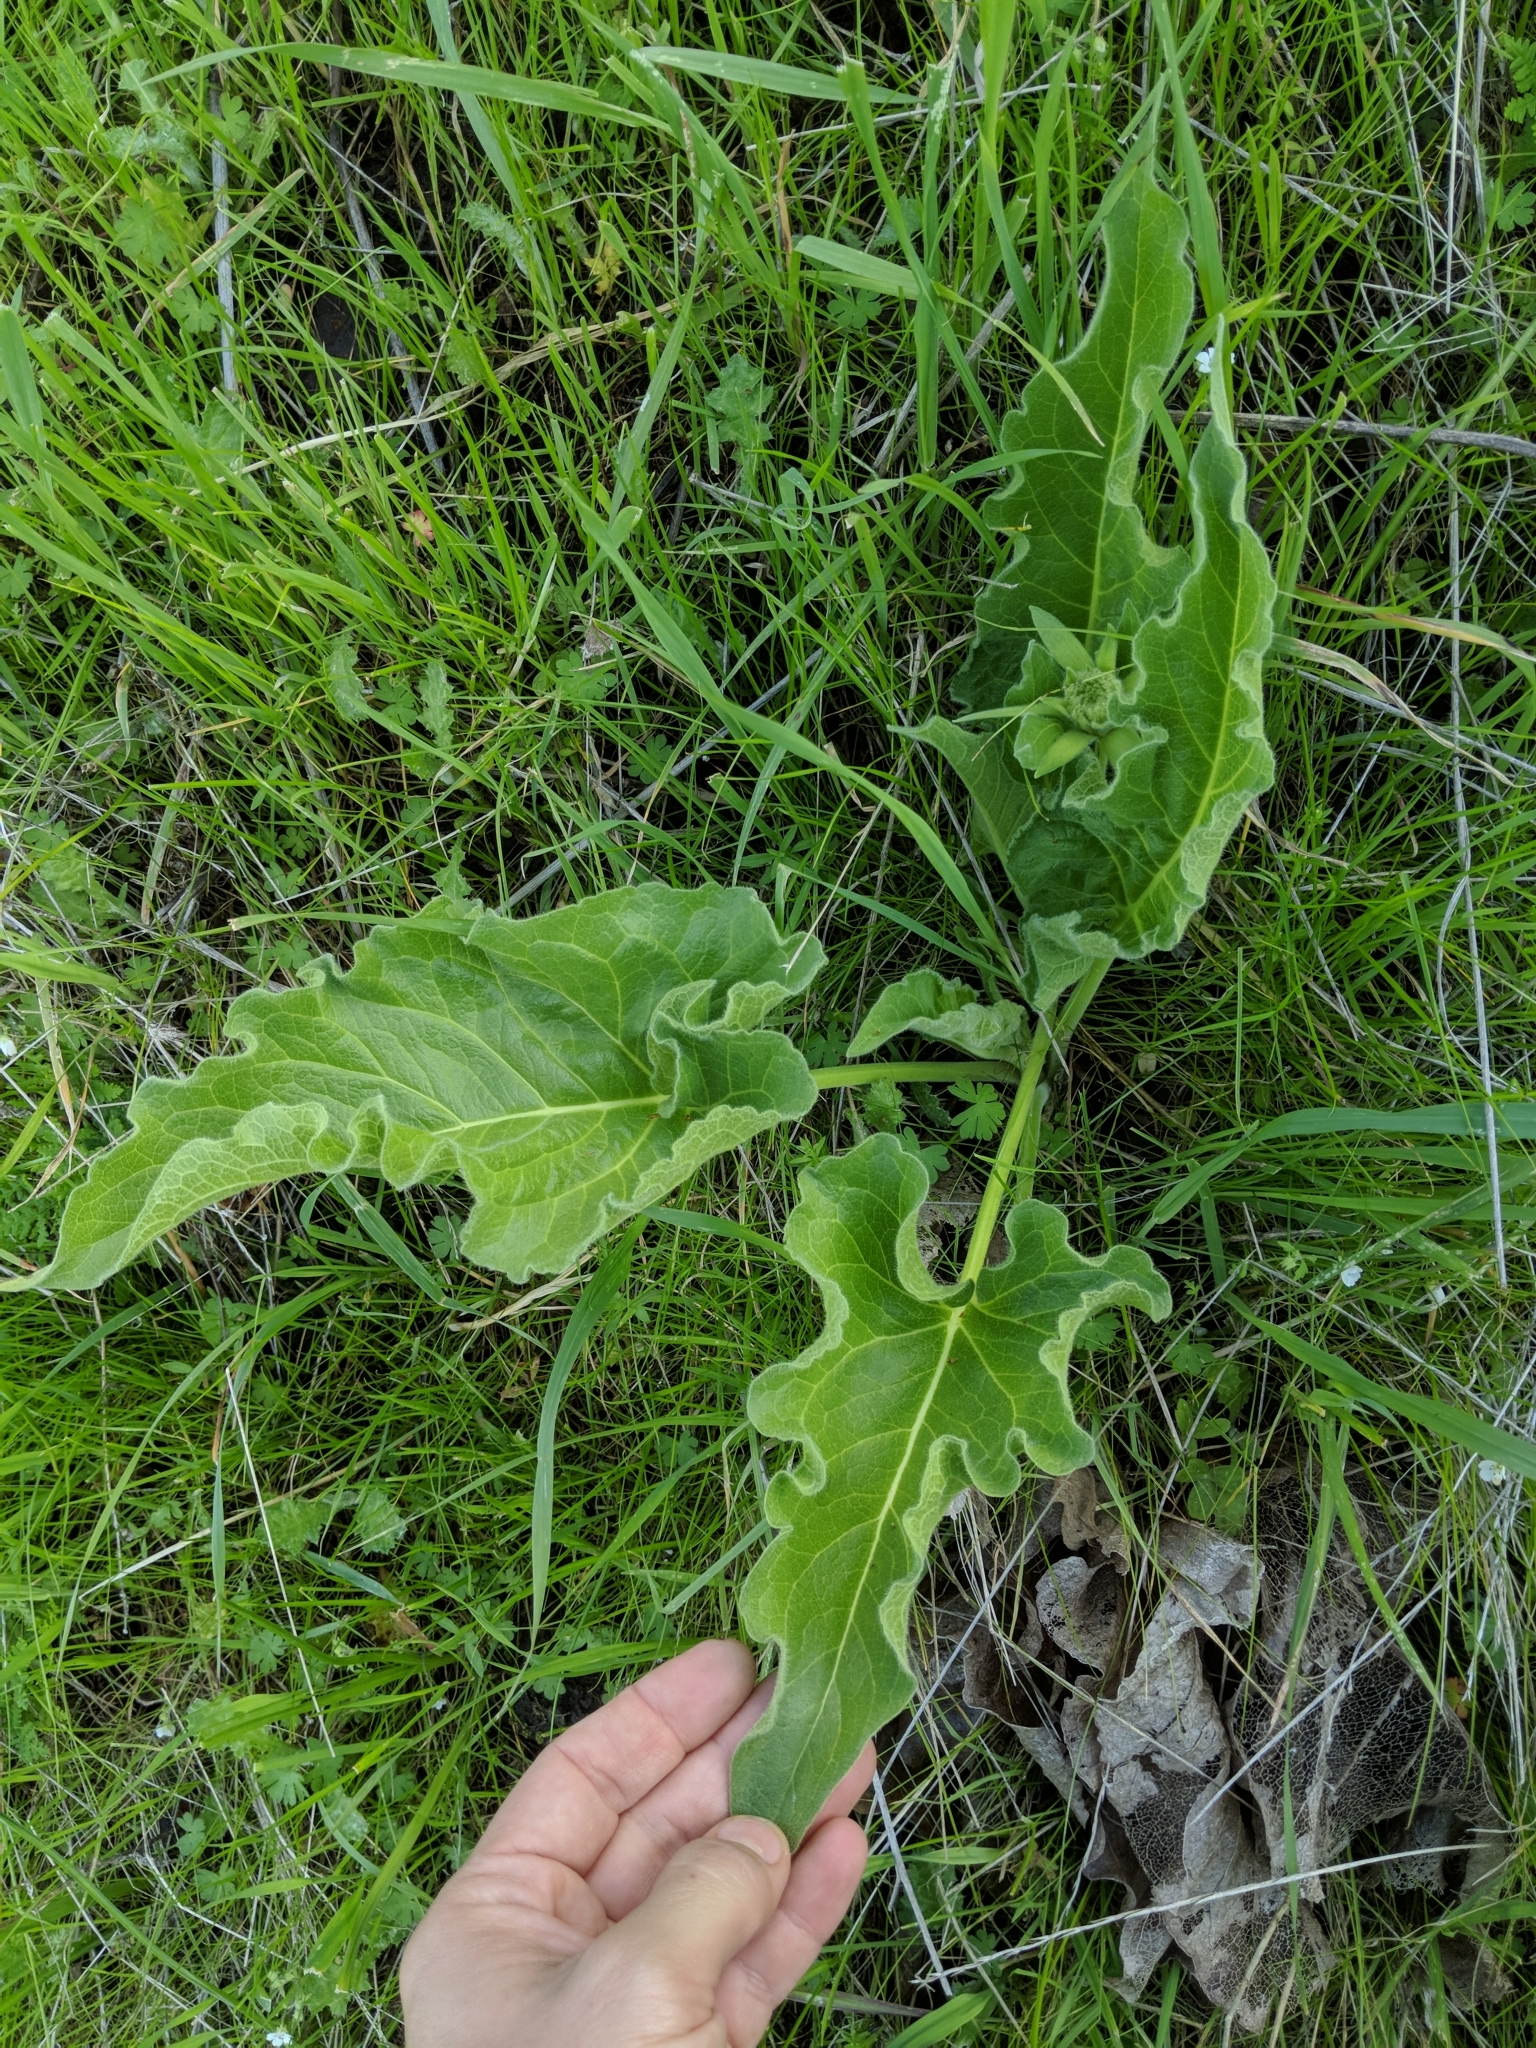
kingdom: Plantae
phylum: Tracheophyta
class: Magnoliopsida
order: Asterales
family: Asteraceae
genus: Balsamorhiza
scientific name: Balsamorhiza deltoidea
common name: Deltoid balsamroot
